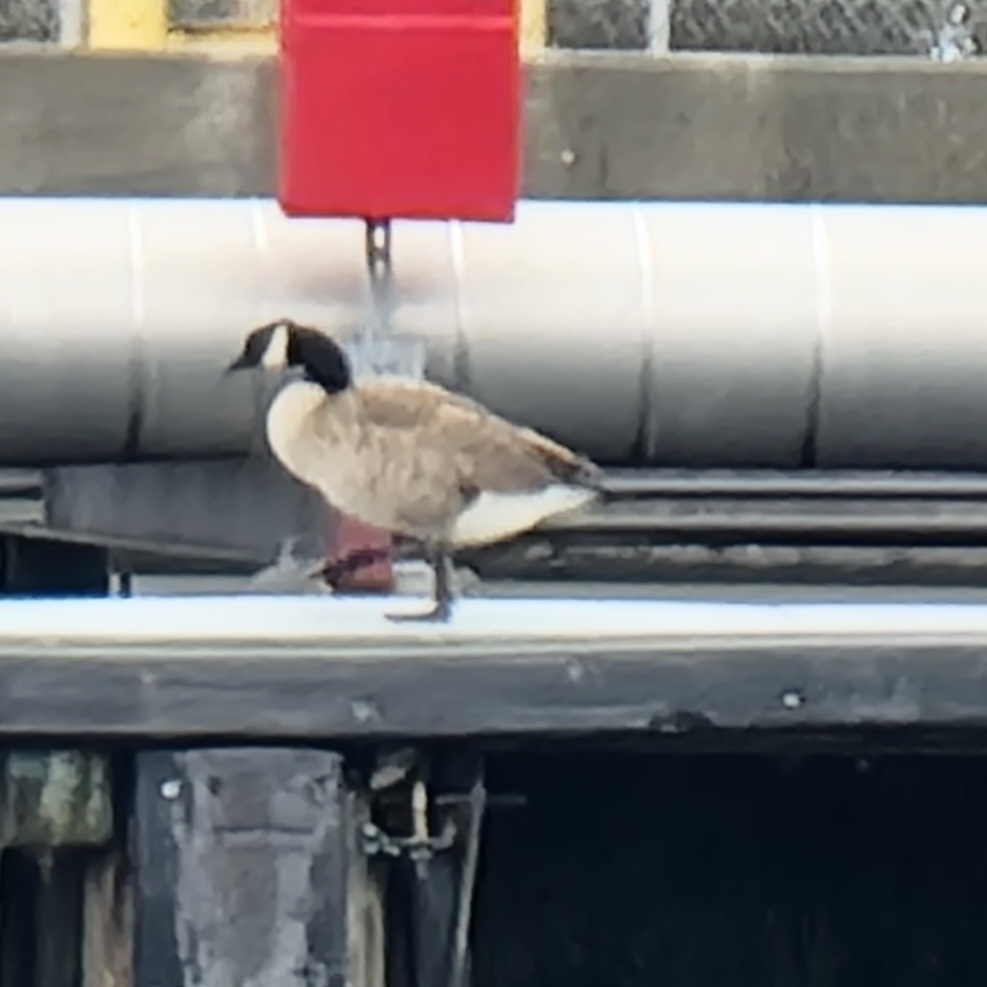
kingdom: Animalia
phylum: Chordata
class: Aves
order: Anseriformes
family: Anatidae
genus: Branta
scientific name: Branta canadensis
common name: Canada goose
